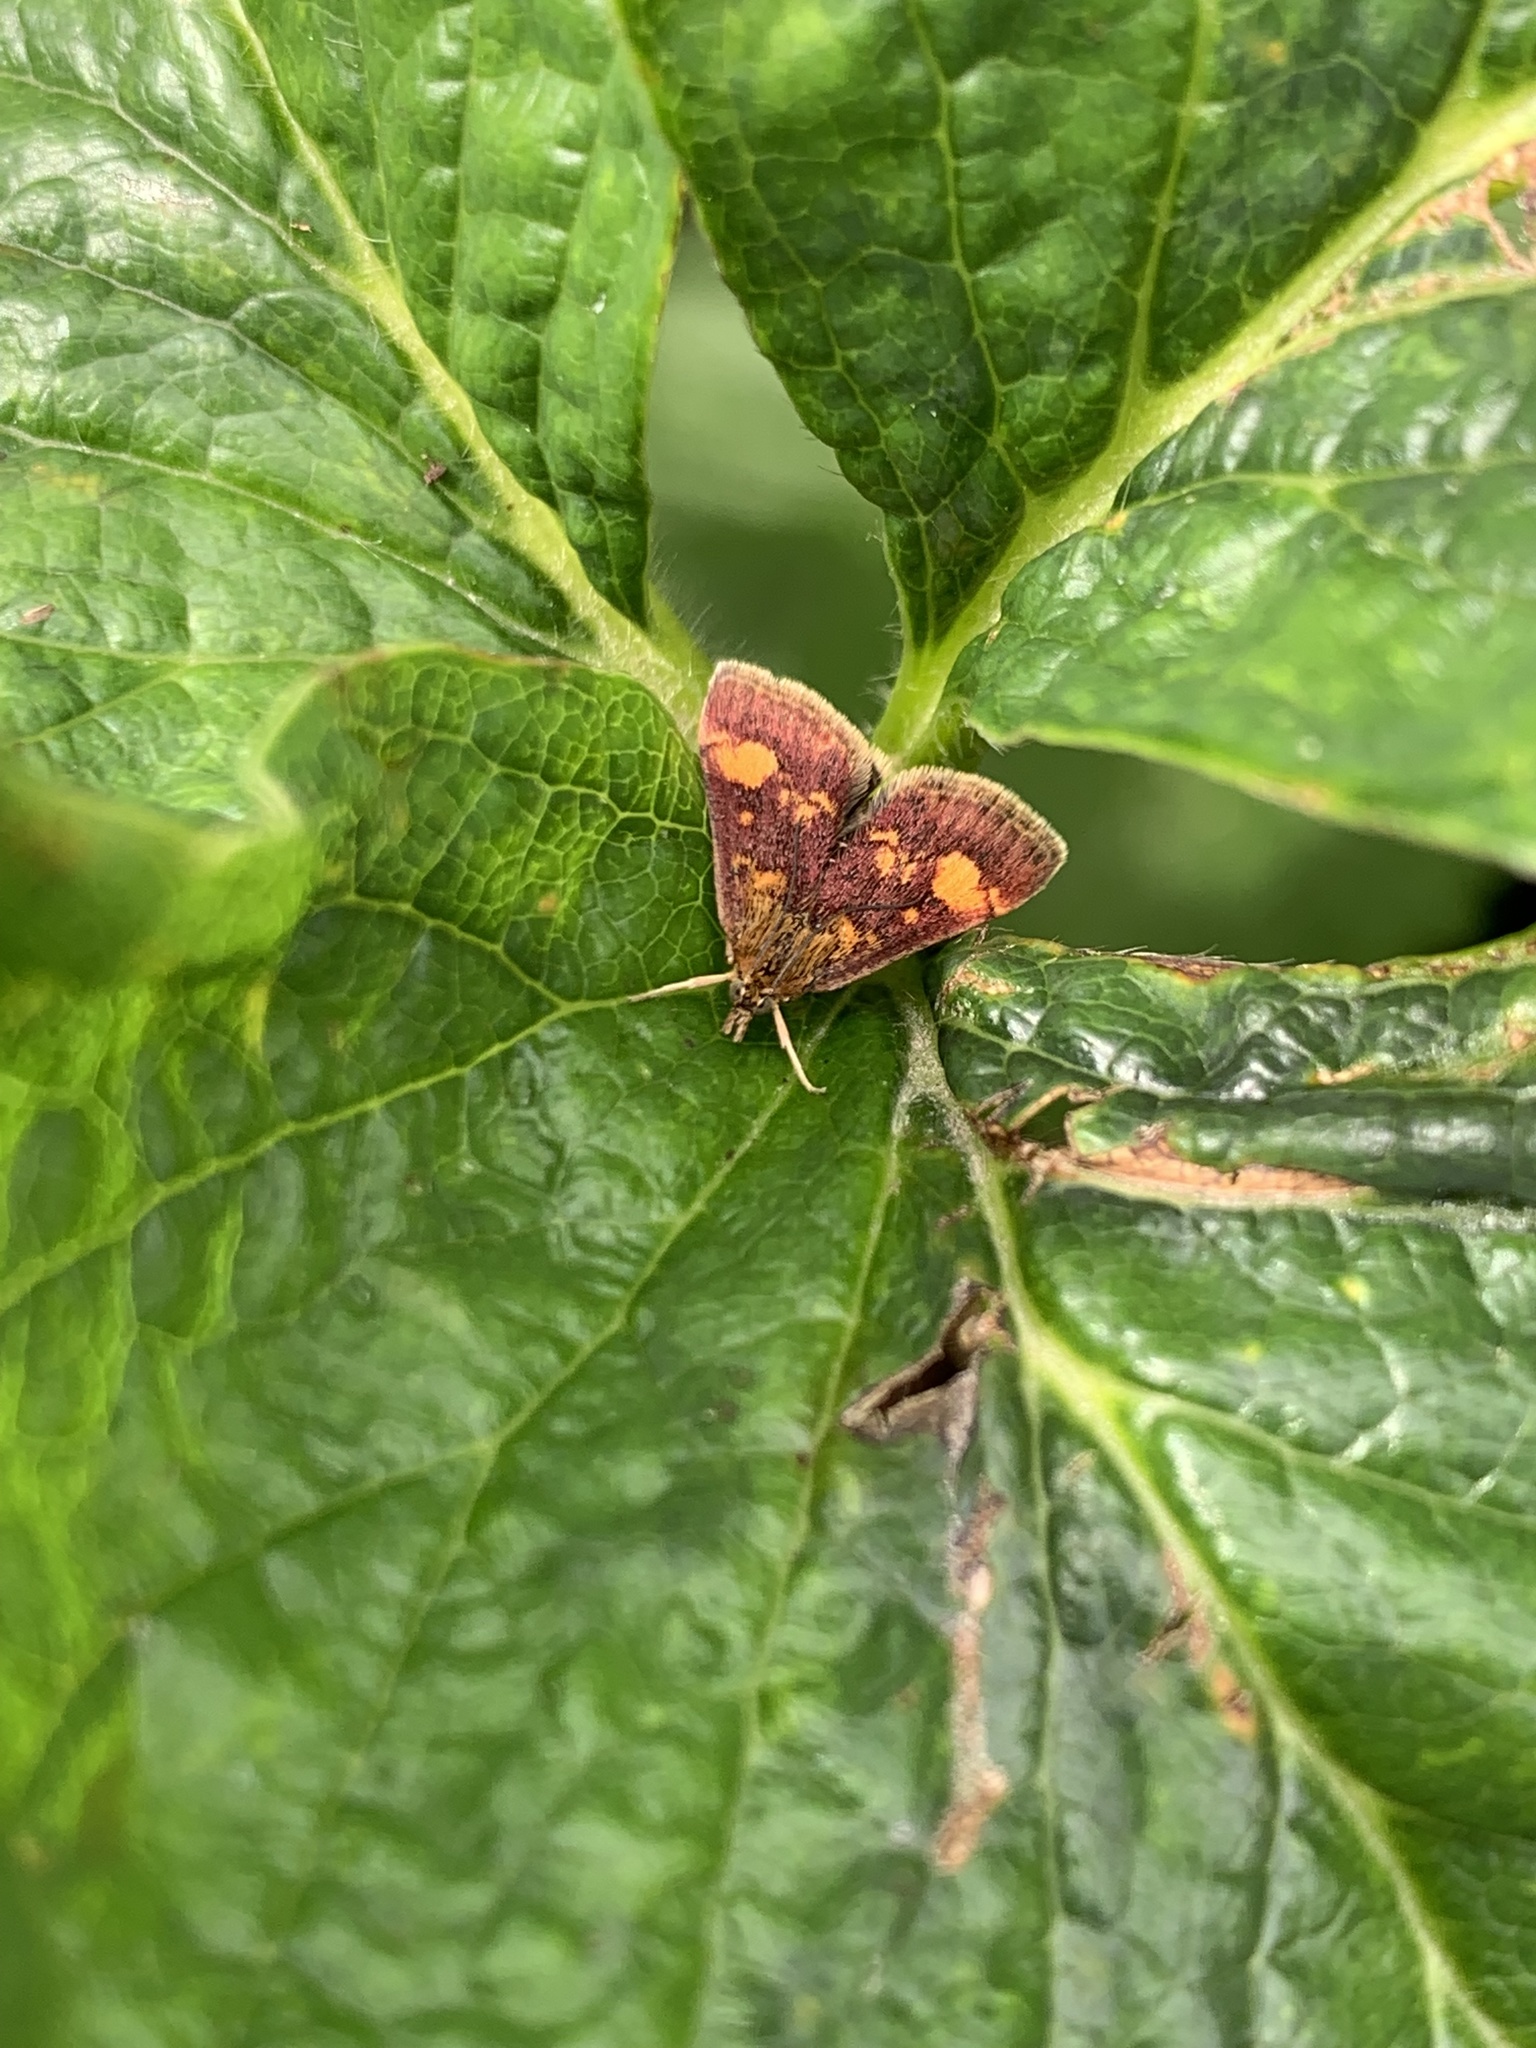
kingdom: Animalia
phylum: Arthropoda
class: Insecta
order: Lepidoptera
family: Crambidae
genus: Pyrausta
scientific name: Pyrausta aurata
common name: Small purple & gold
